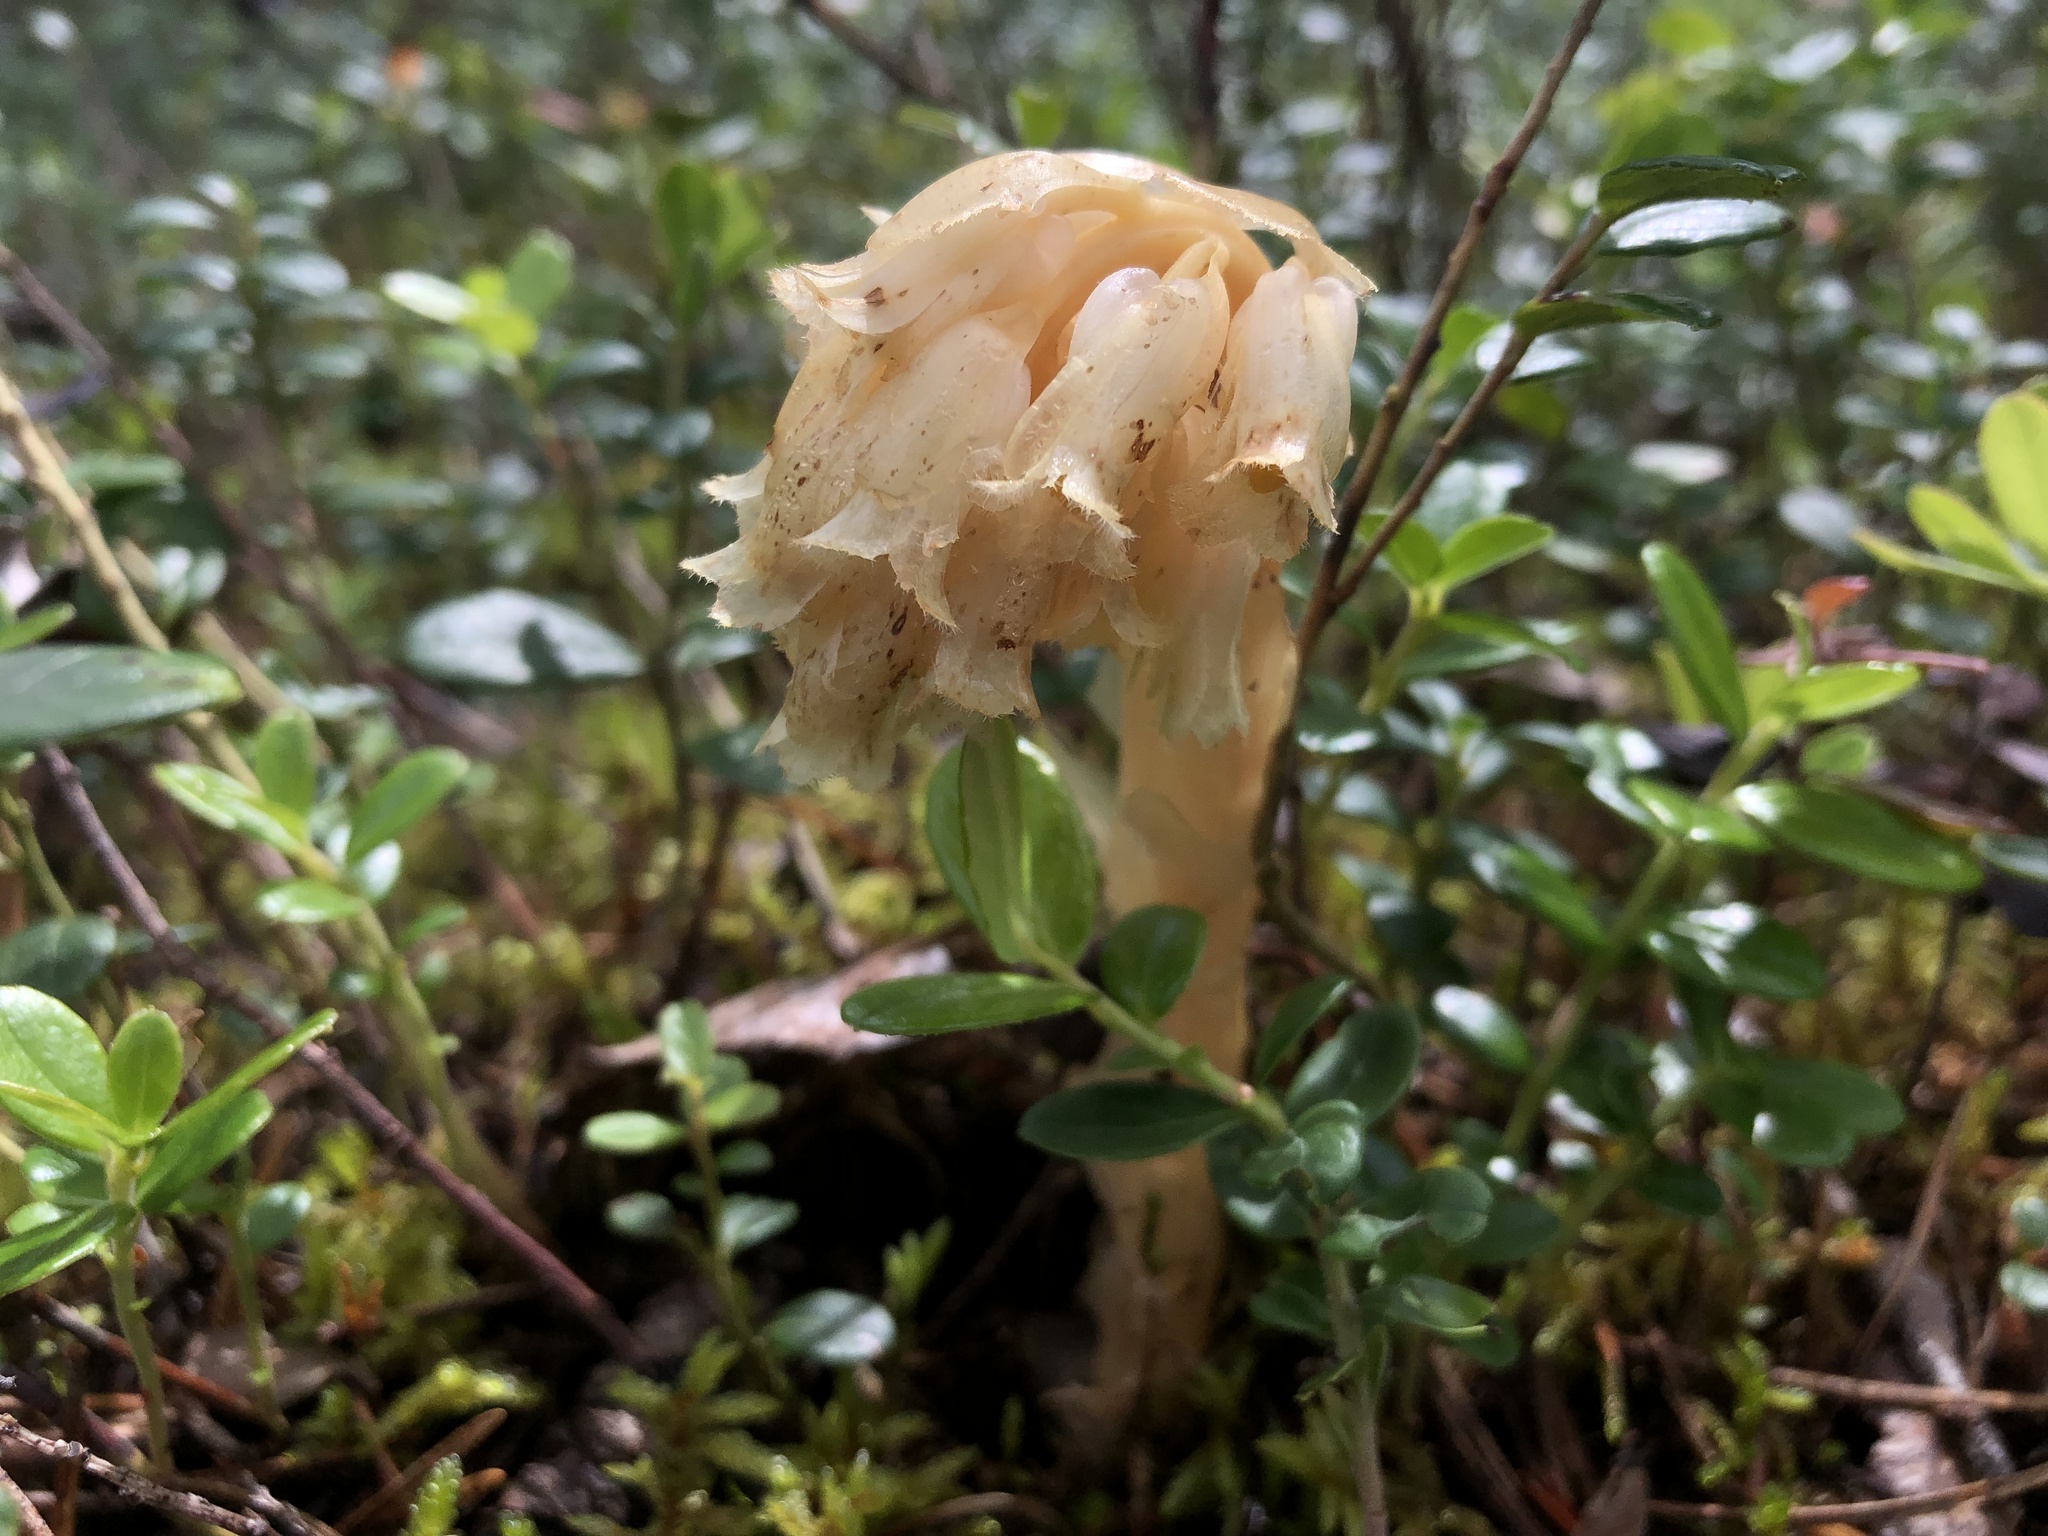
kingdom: Plantae
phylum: Tracheophyta
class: Magnoliopsida
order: Ericales
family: Ericaceae
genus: Hypopitys
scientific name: Hypopitys monotropa
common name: Yellow bird's-nest
